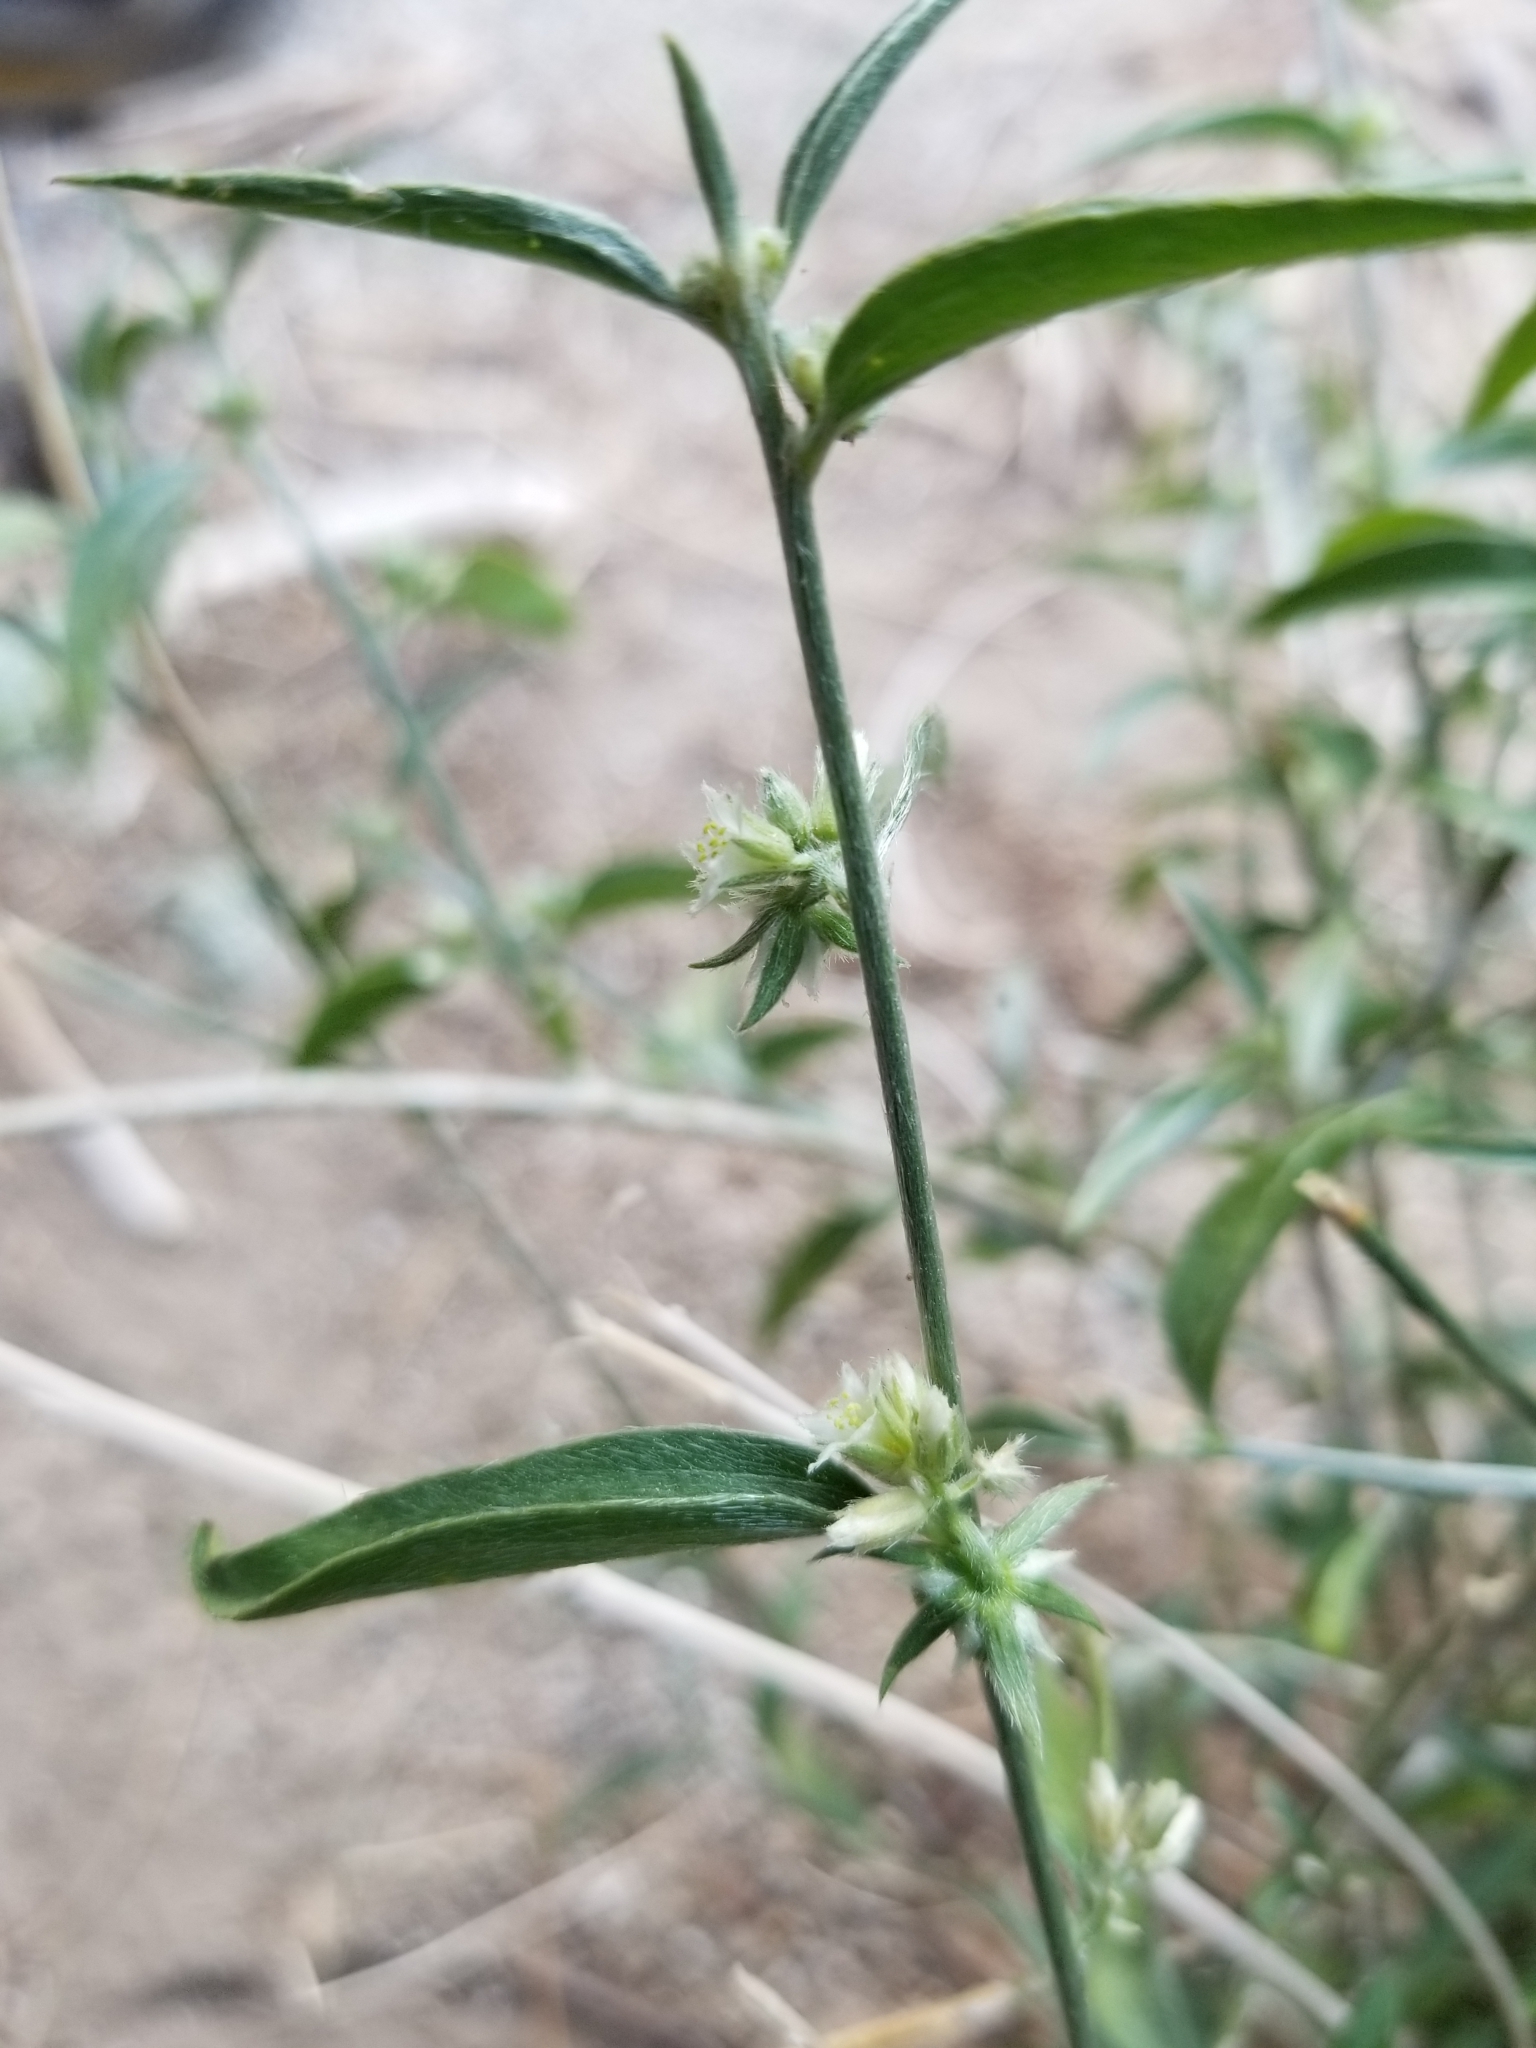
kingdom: Plantae
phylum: Tracheophyta
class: Magnoliopsida
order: Malpighiales
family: Euphorbiaceae
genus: Ditaxis
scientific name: Ditaxis lanceolata
